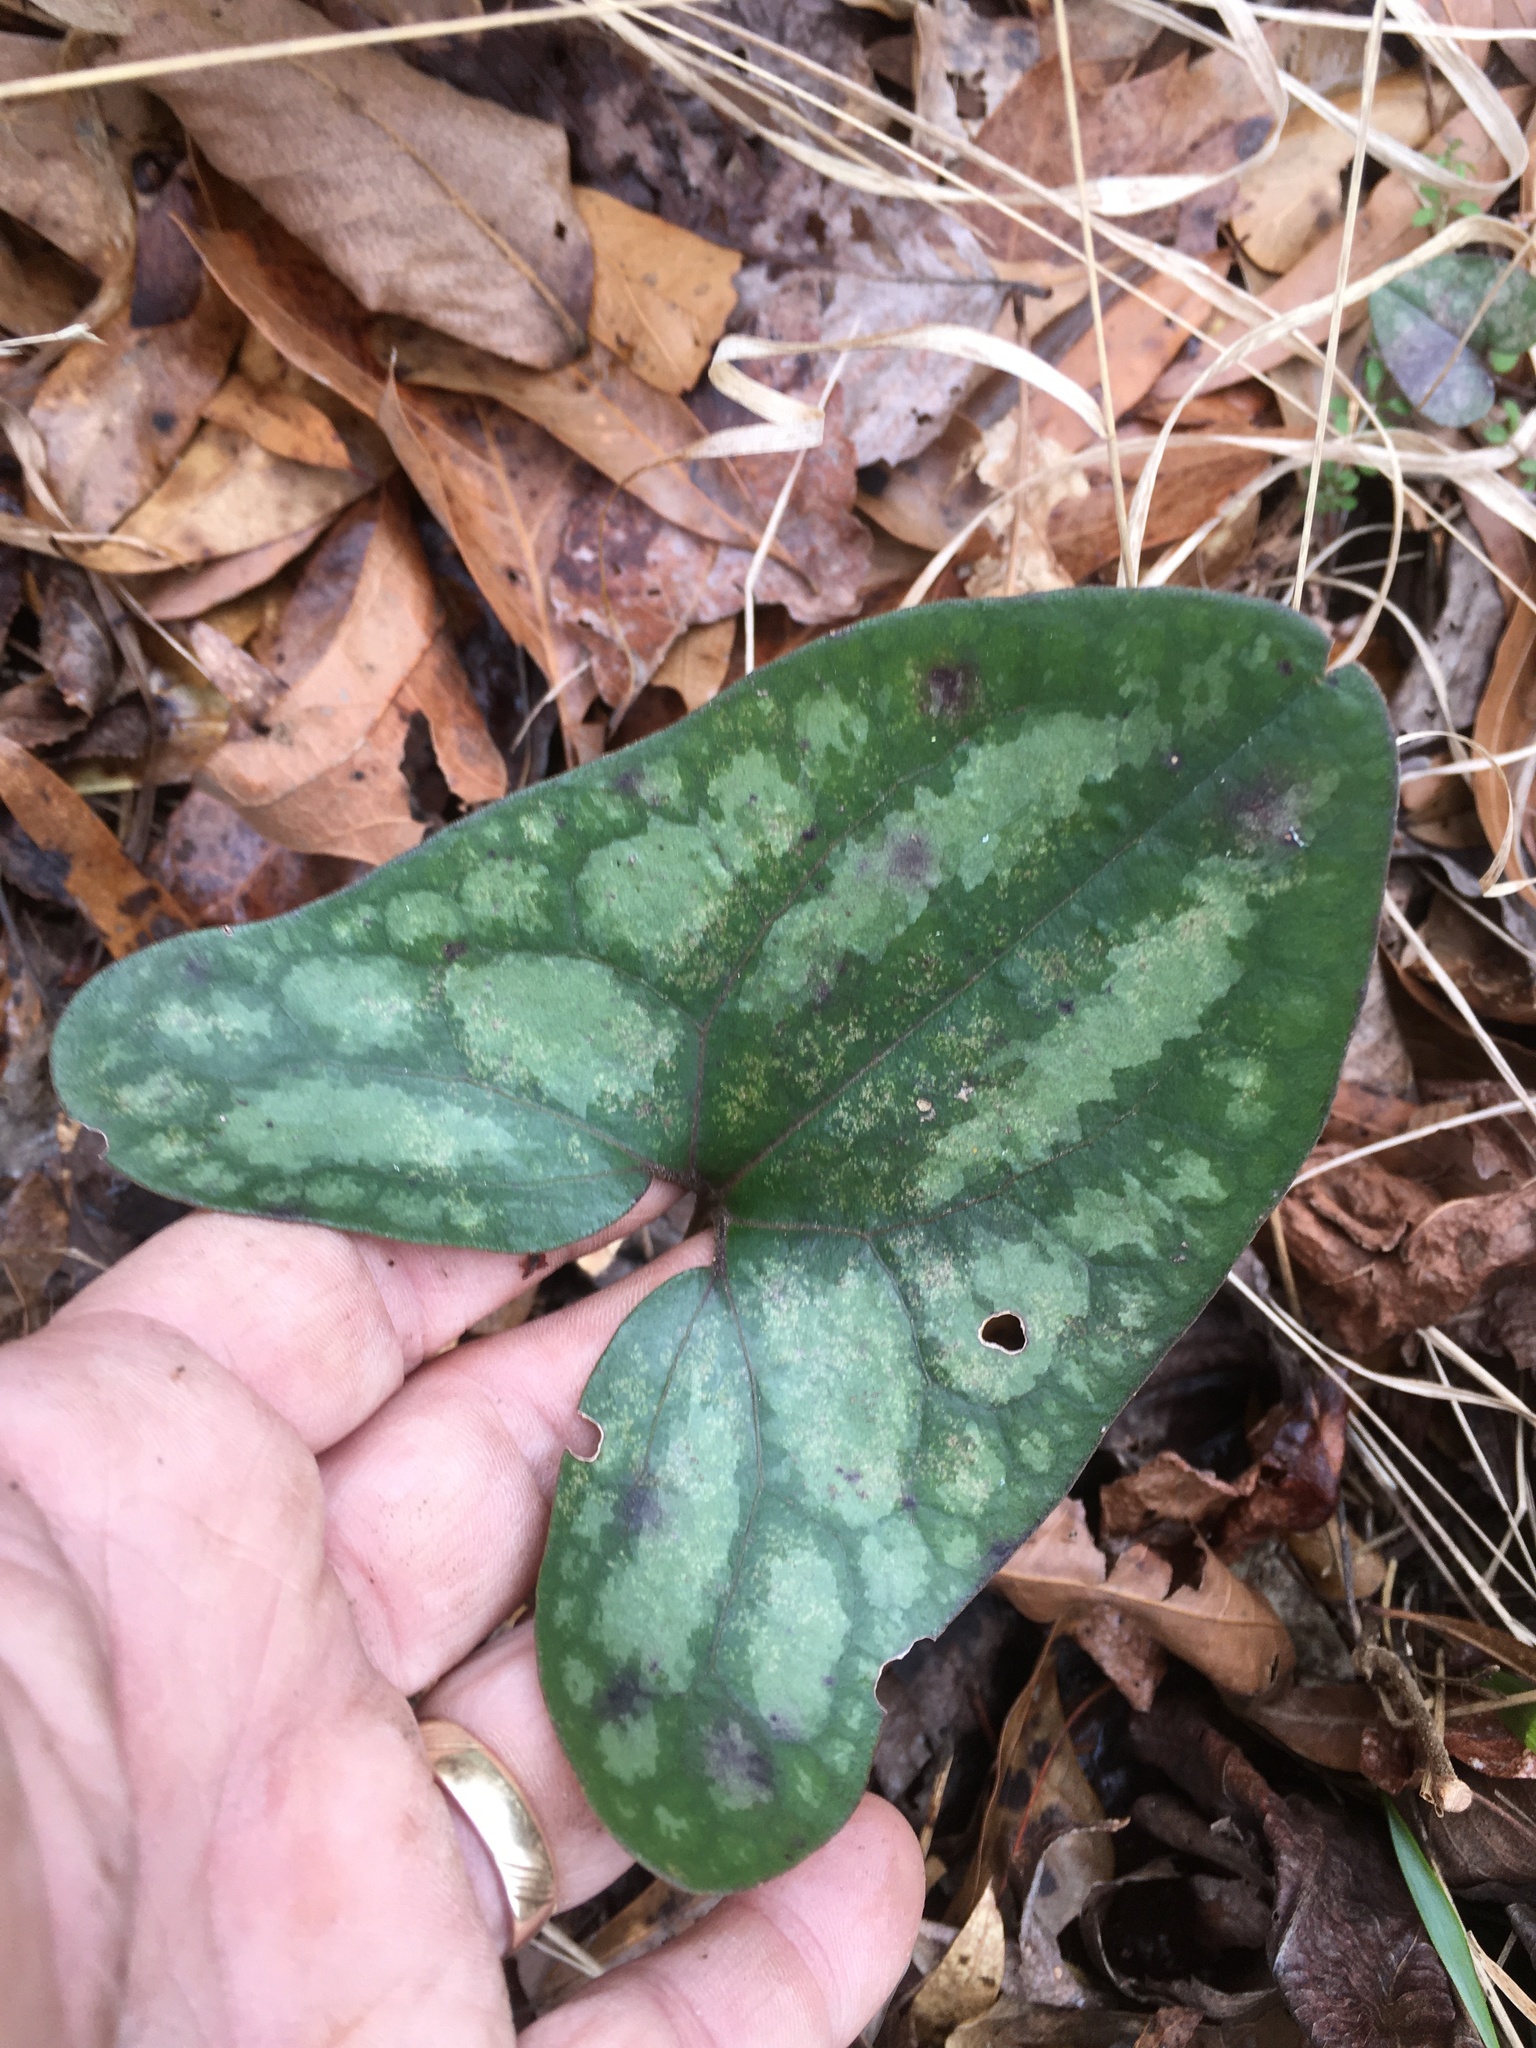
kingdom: Plantae
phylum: Tracheophyta
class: Magnoliopsida
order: Piperales
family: Aristolochiaceae
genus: Hexastylis
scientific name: Hexastylis arifolia
